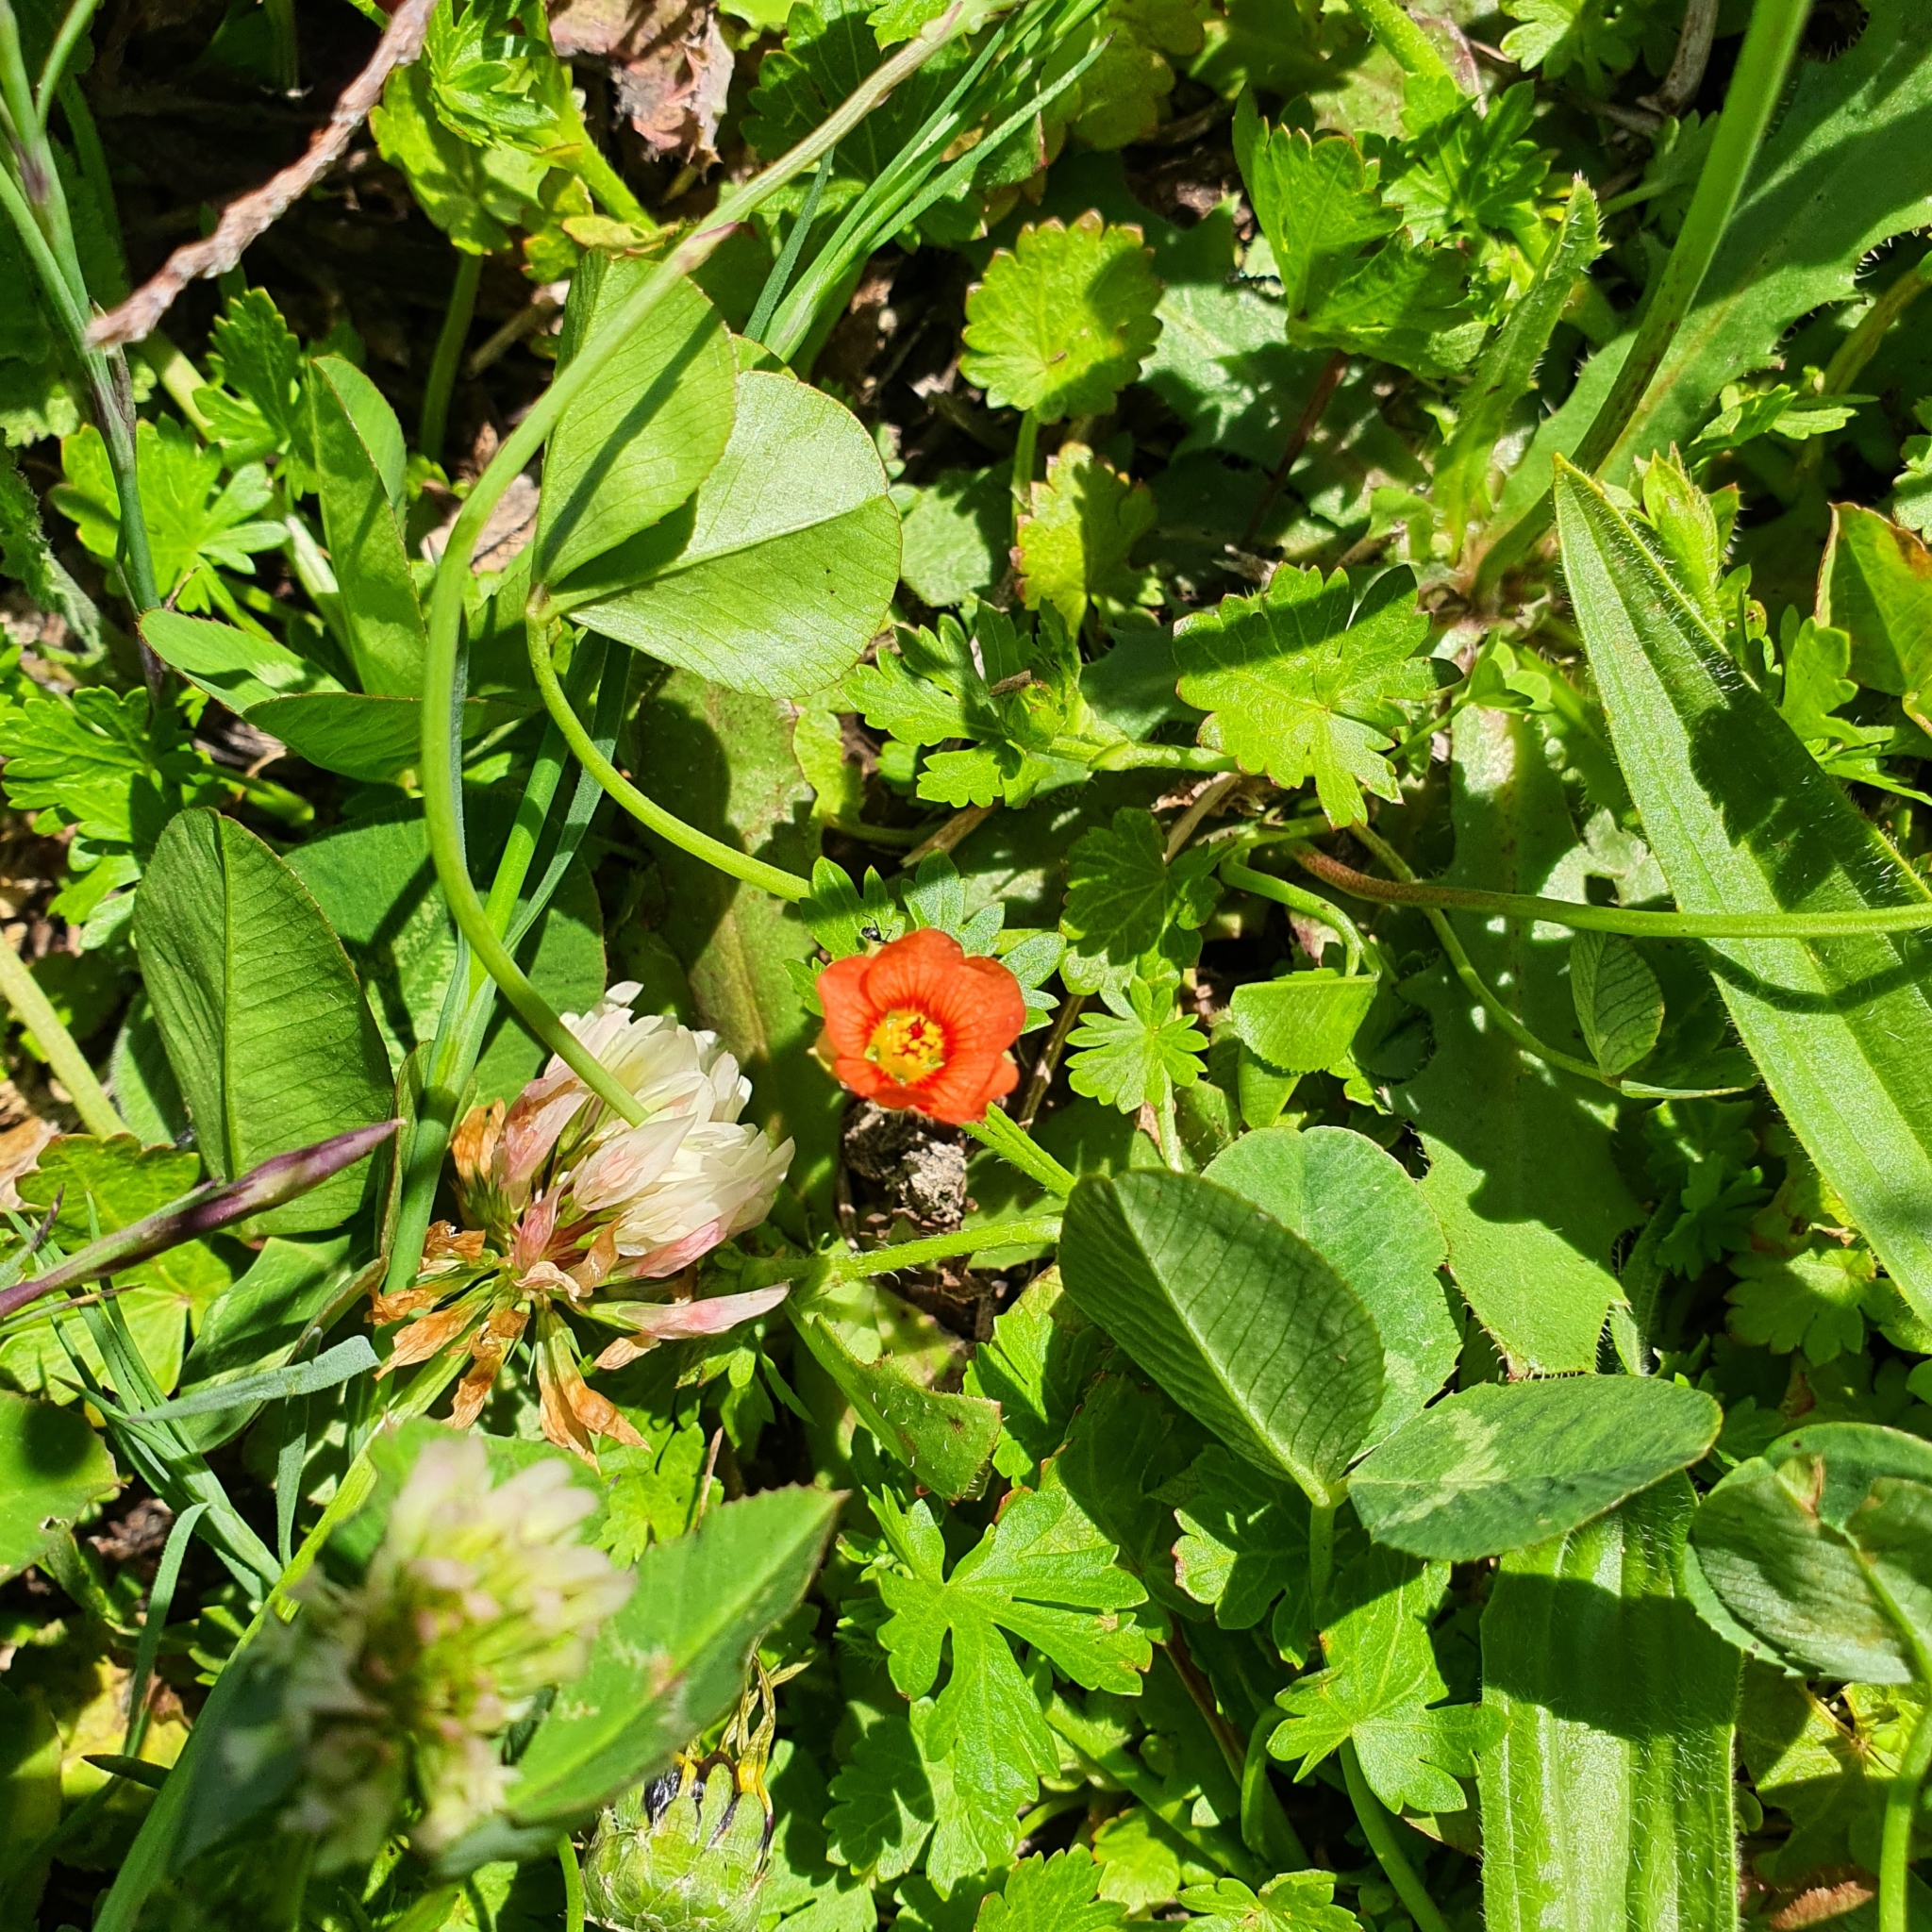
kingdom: Plantae
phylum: Tracheophyta
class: Magnoliopsida
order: Malvales
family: Malvaceae
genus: Modiola
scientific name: Modiola caroliniana
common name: Carolina bristlemallow
